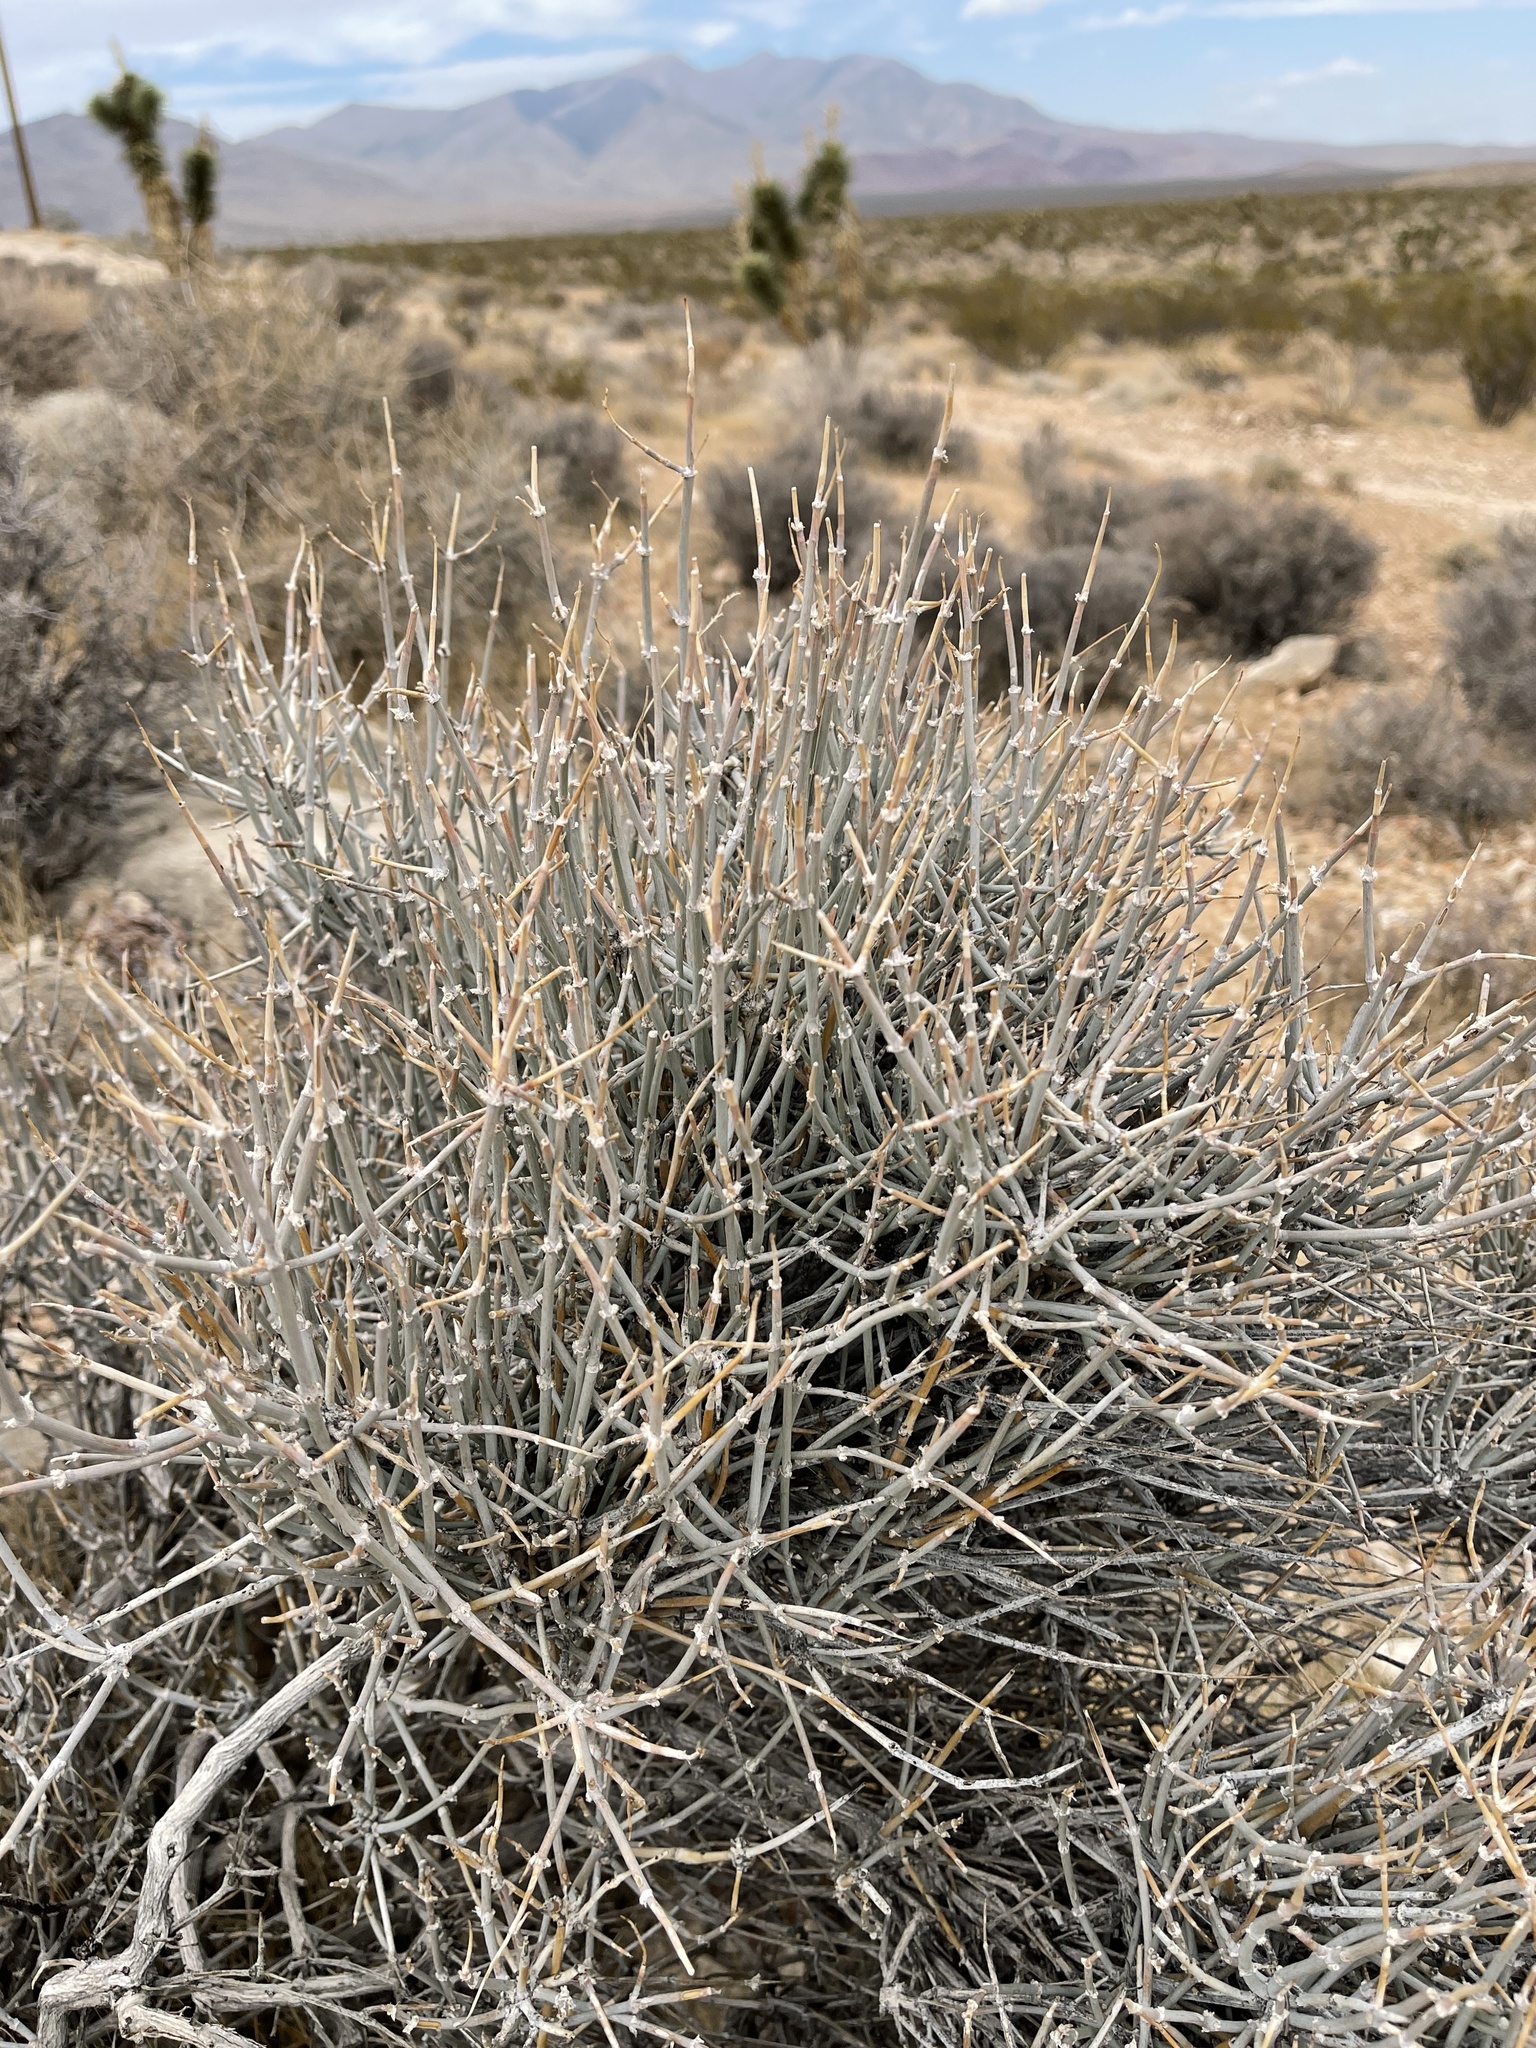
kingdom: Plantae
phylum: Tracheophyta
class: Gnetopsida
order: Ephedrales
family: Ephedraceae
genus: Ephedra
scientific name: Ephedra nevadensis
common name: Gray ephedra
